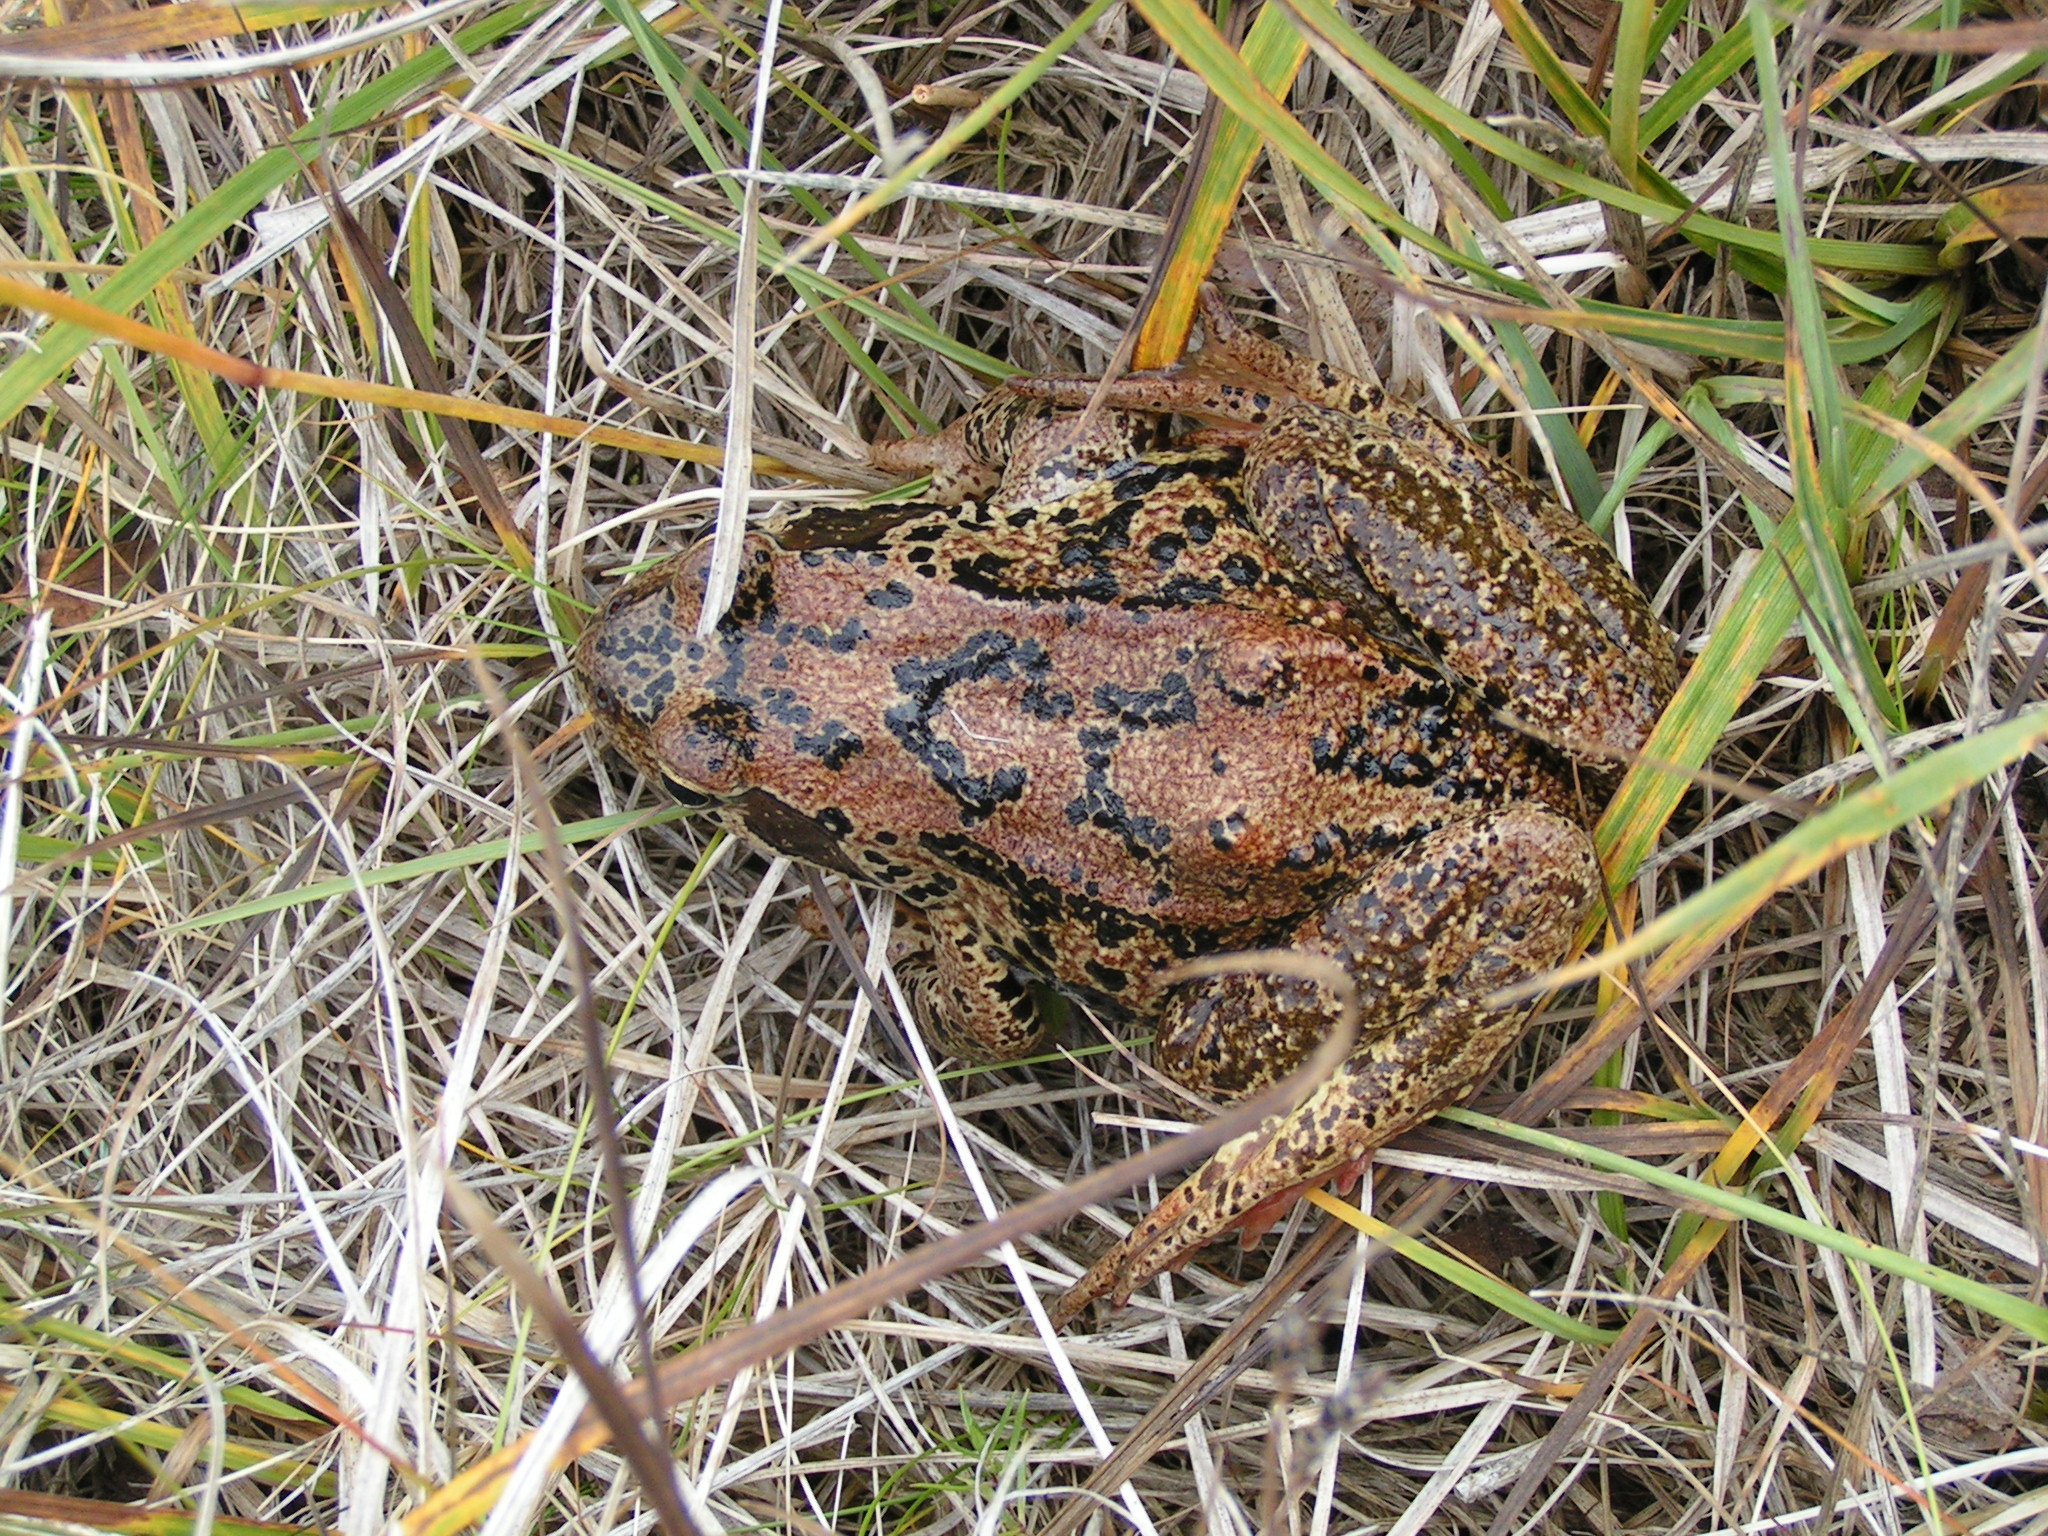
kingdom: Animalia
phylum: Chordata
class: Amphibia
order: Anura
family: Ranidae
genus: Rana
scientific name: Rana temporaria
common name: Common frog
